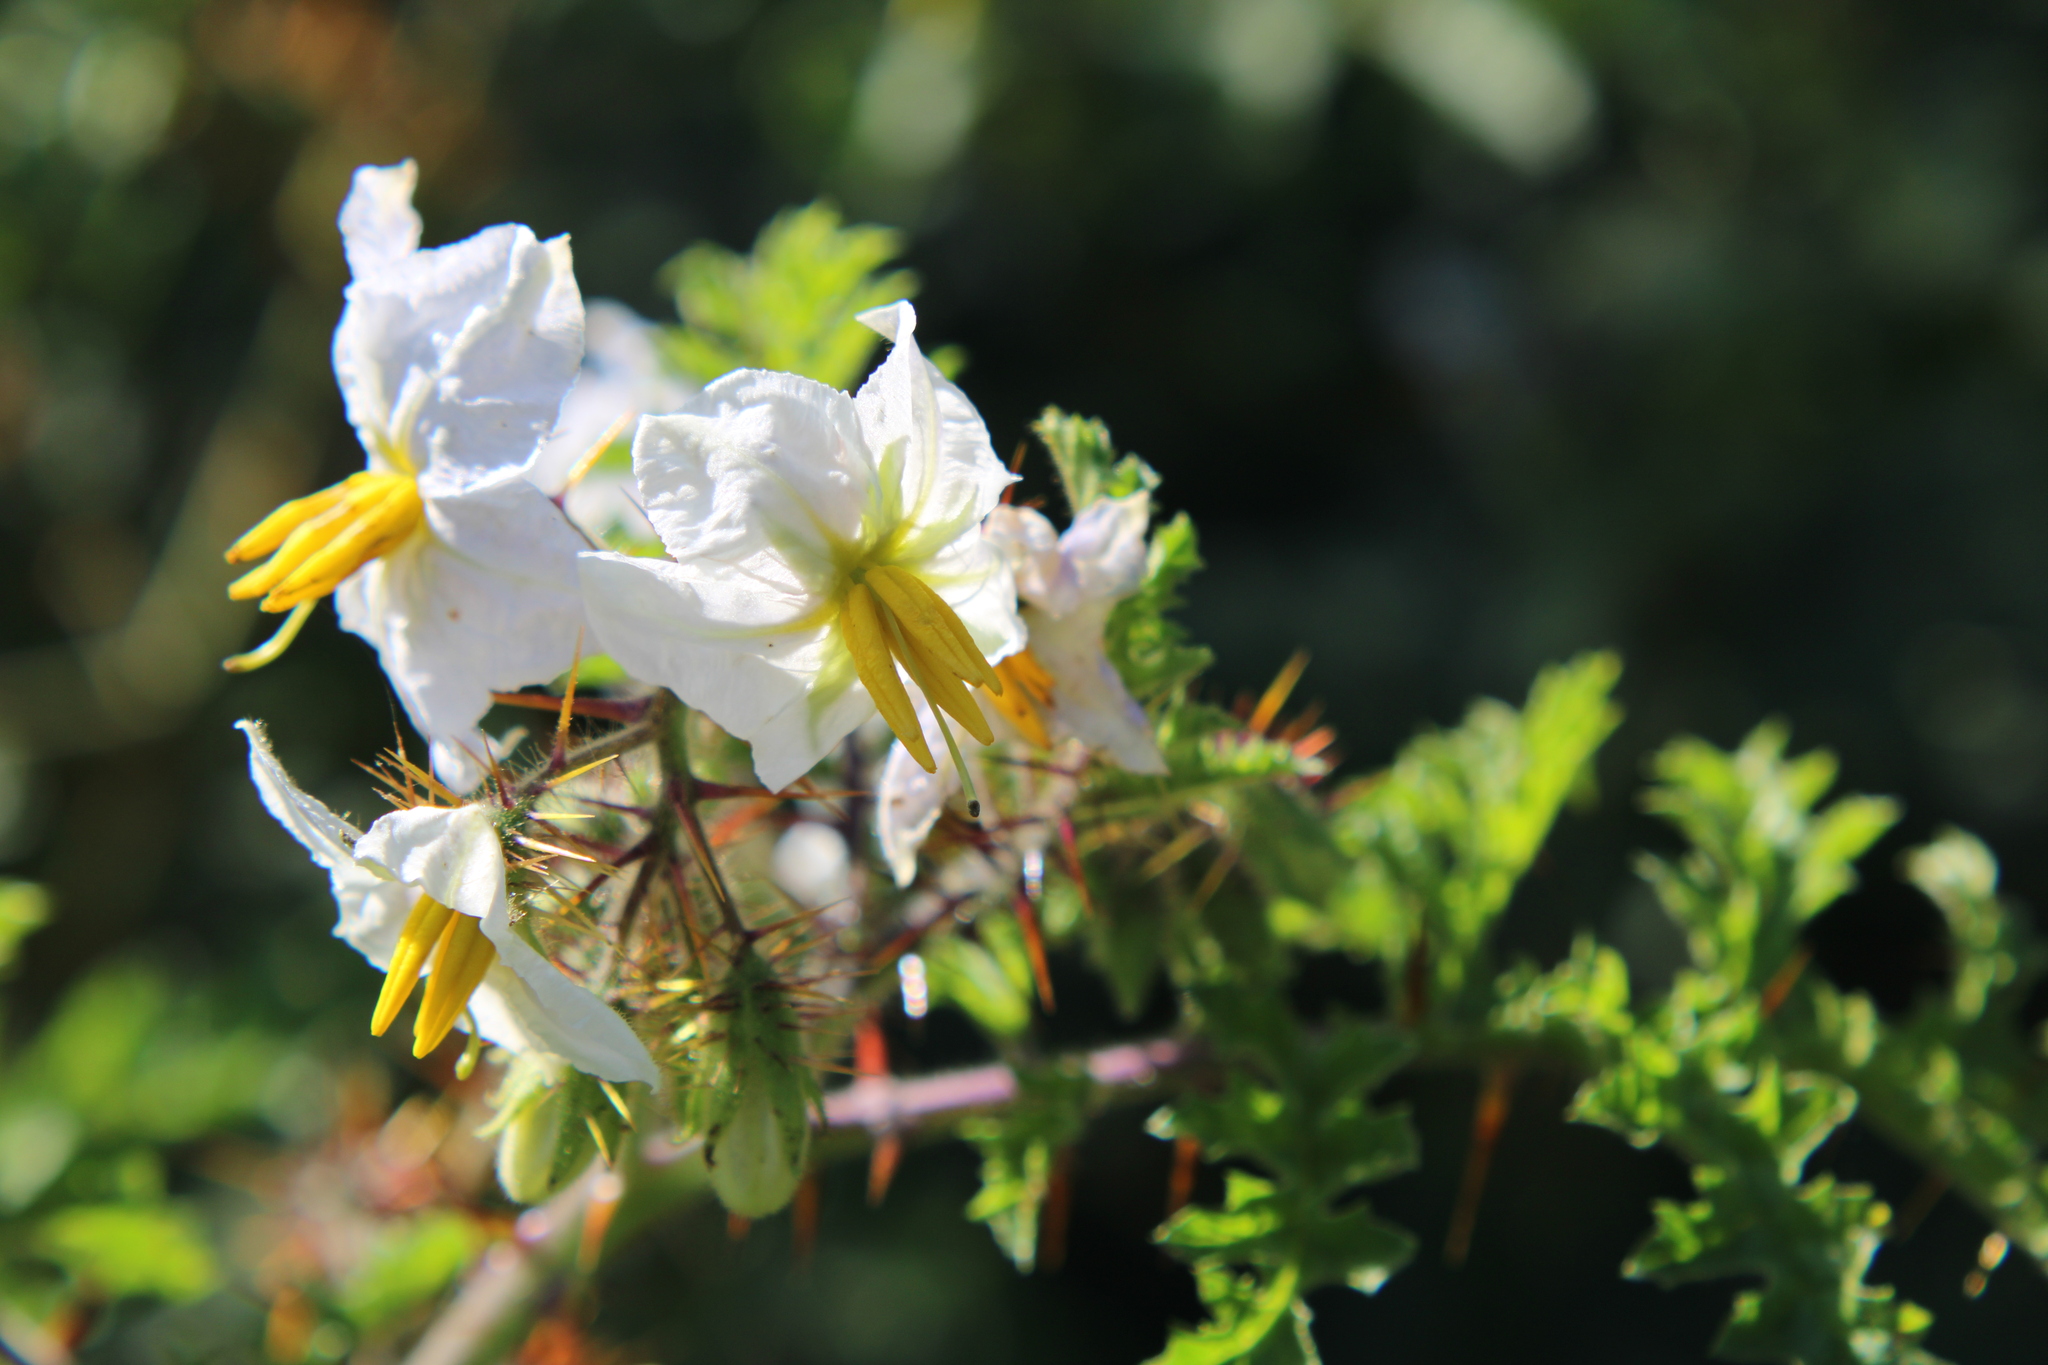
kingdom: Plantae
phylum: Tracheophyta
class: Magnoliopsida
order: Solanales
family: Solanaceae
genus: Solanum
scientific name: Solanum sisymbriifolium
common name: Red buffalo-bur
